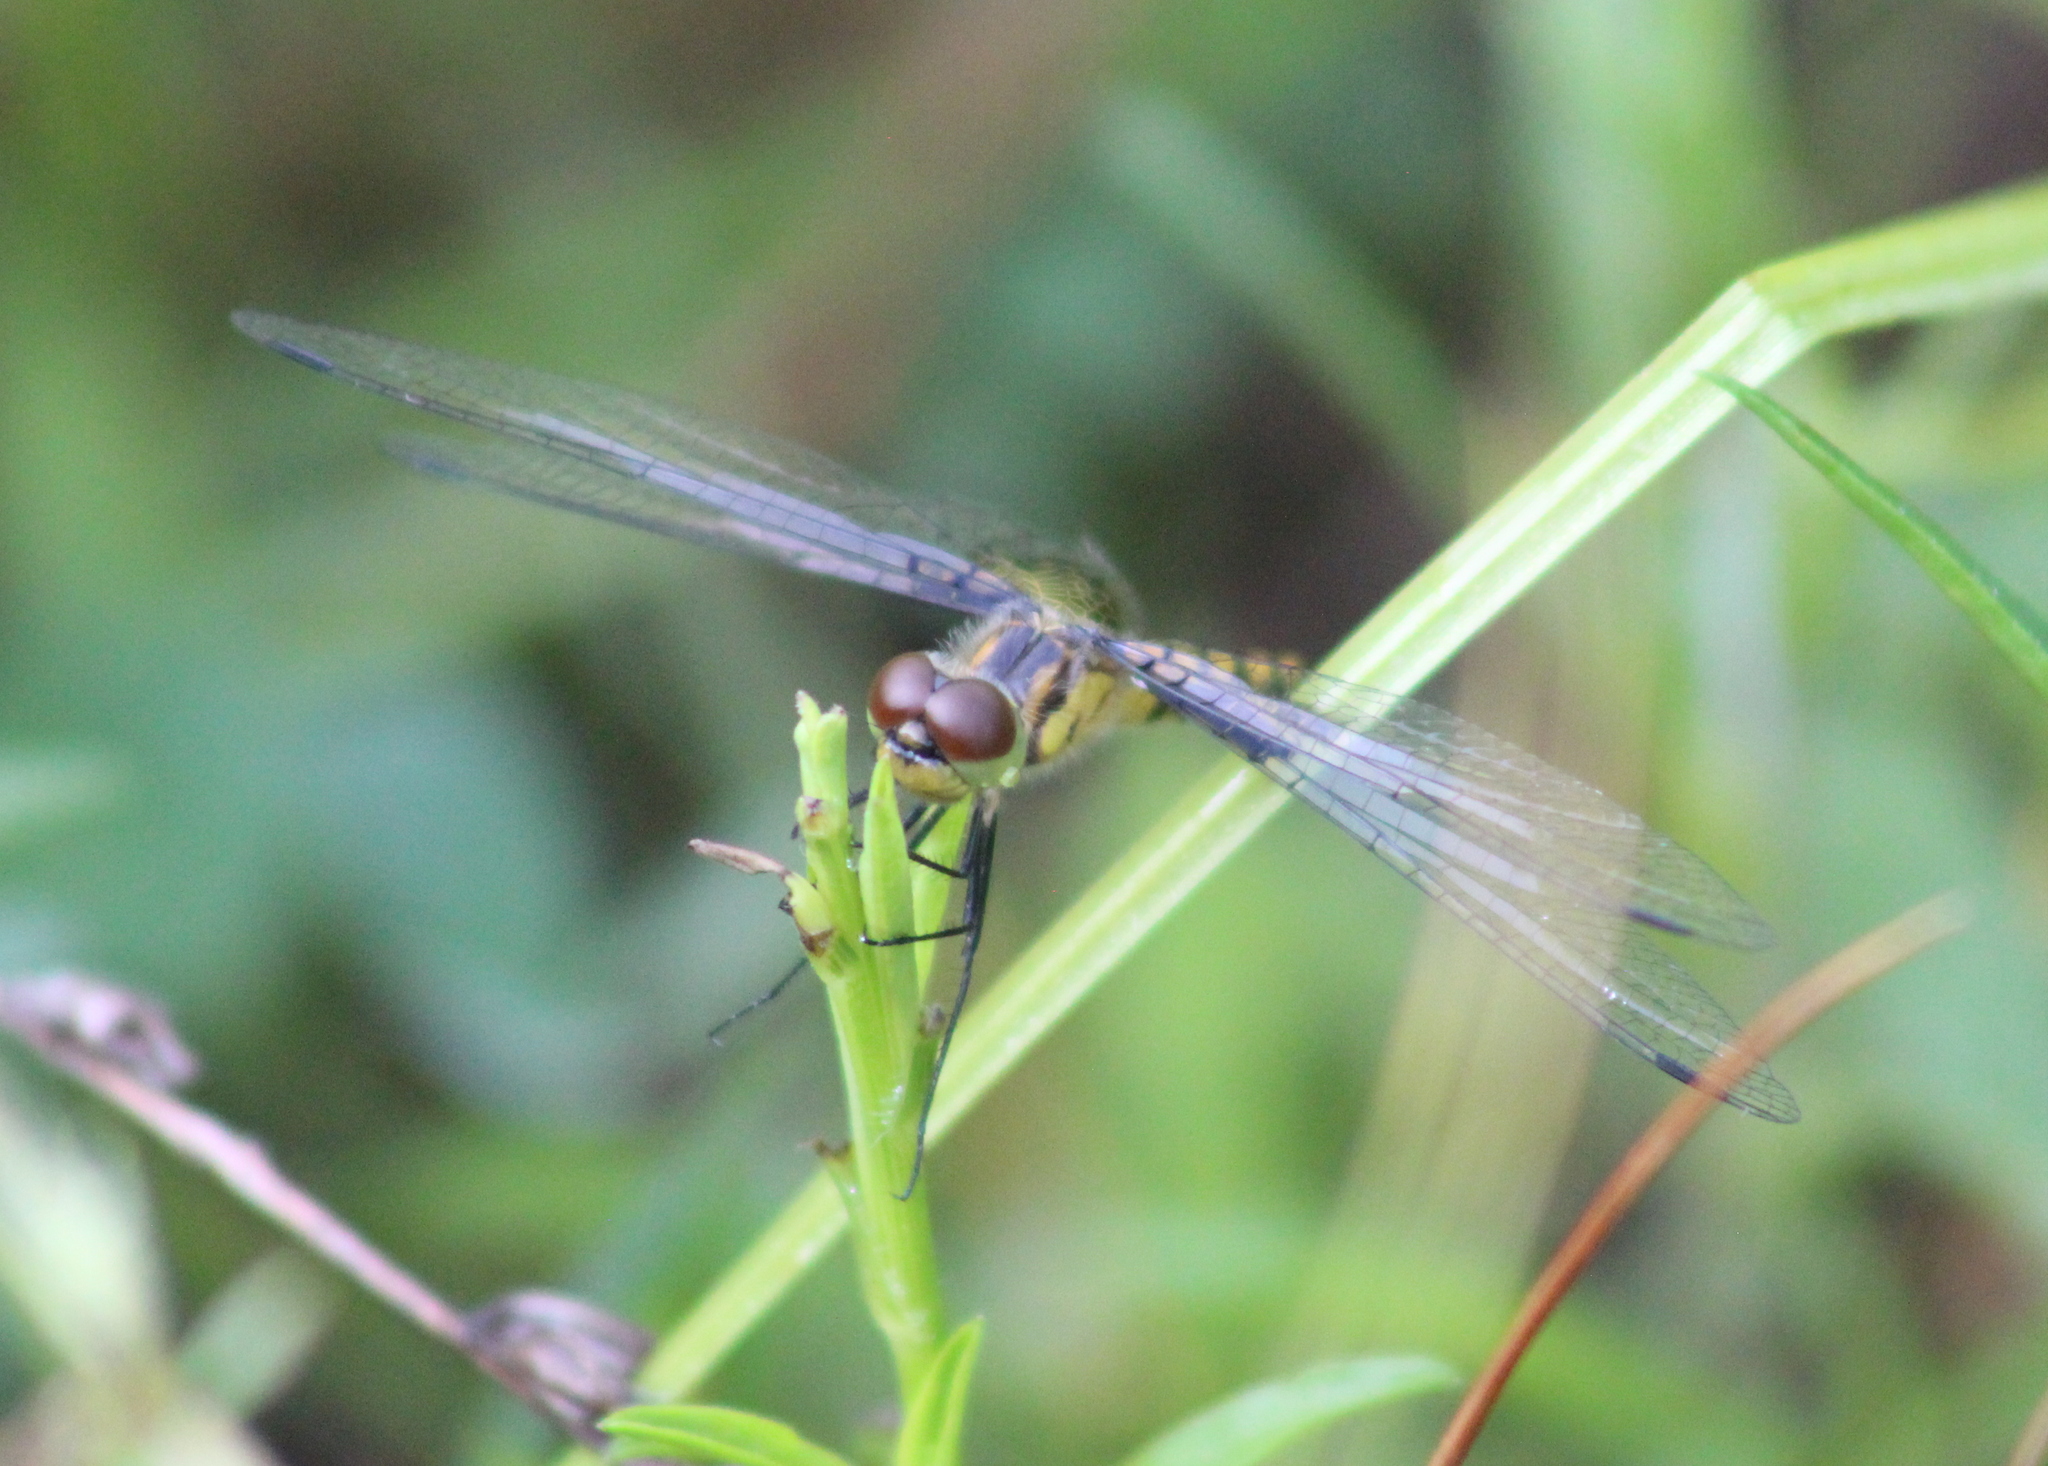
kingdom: Animalia
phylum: Arthropoda
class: Insecta
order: Odonata
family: Libellulidae
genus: Celithemis
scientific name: Celithemis martha
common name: Martha's pennant
